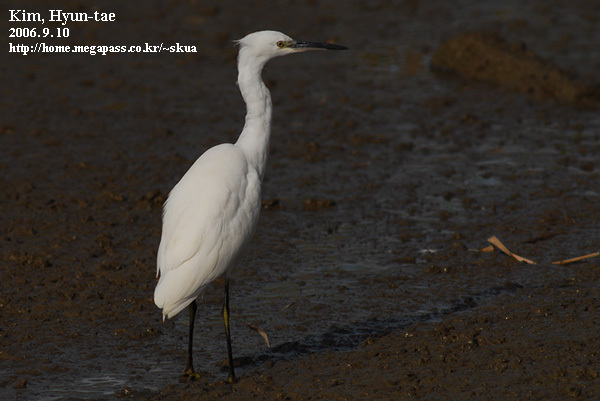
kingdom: Animalia
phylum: Chordata
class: Aves
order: Pelecaniformes
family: Ardeidae
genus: Egretta
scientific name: Egretta garzetta
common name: Little egret
